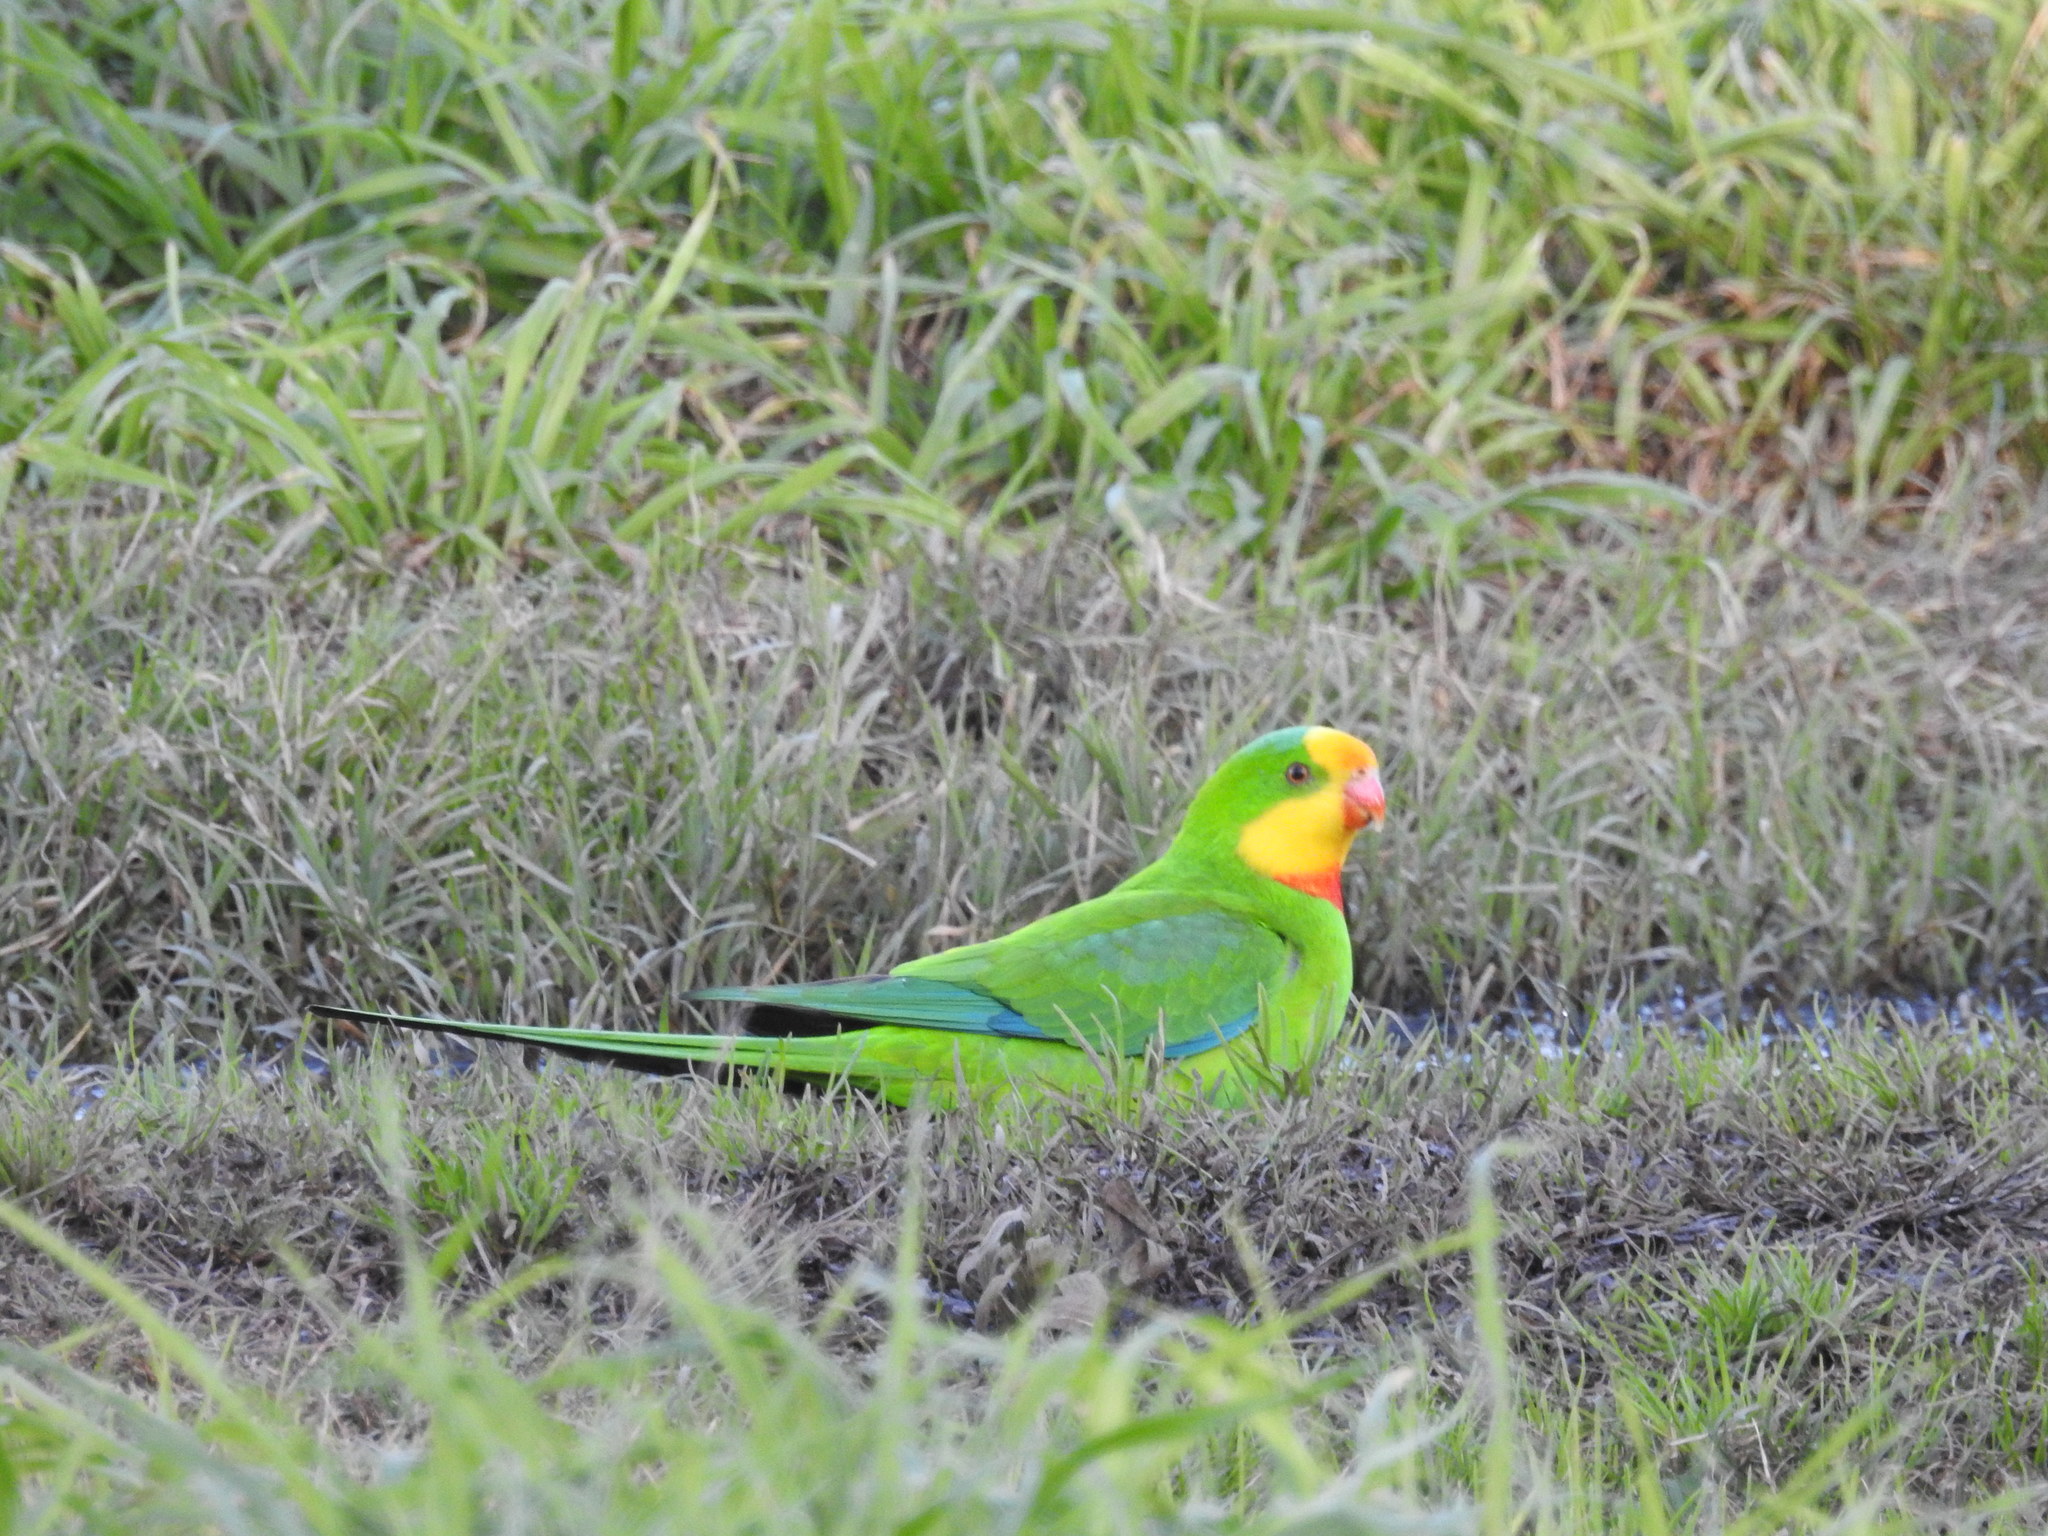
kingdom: Animalia
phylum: Chordata
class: Aves
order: Psittaciformes
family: Psittacidae
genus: Polytelis
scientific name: Polytelis swainsonii
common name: Superb parrot
